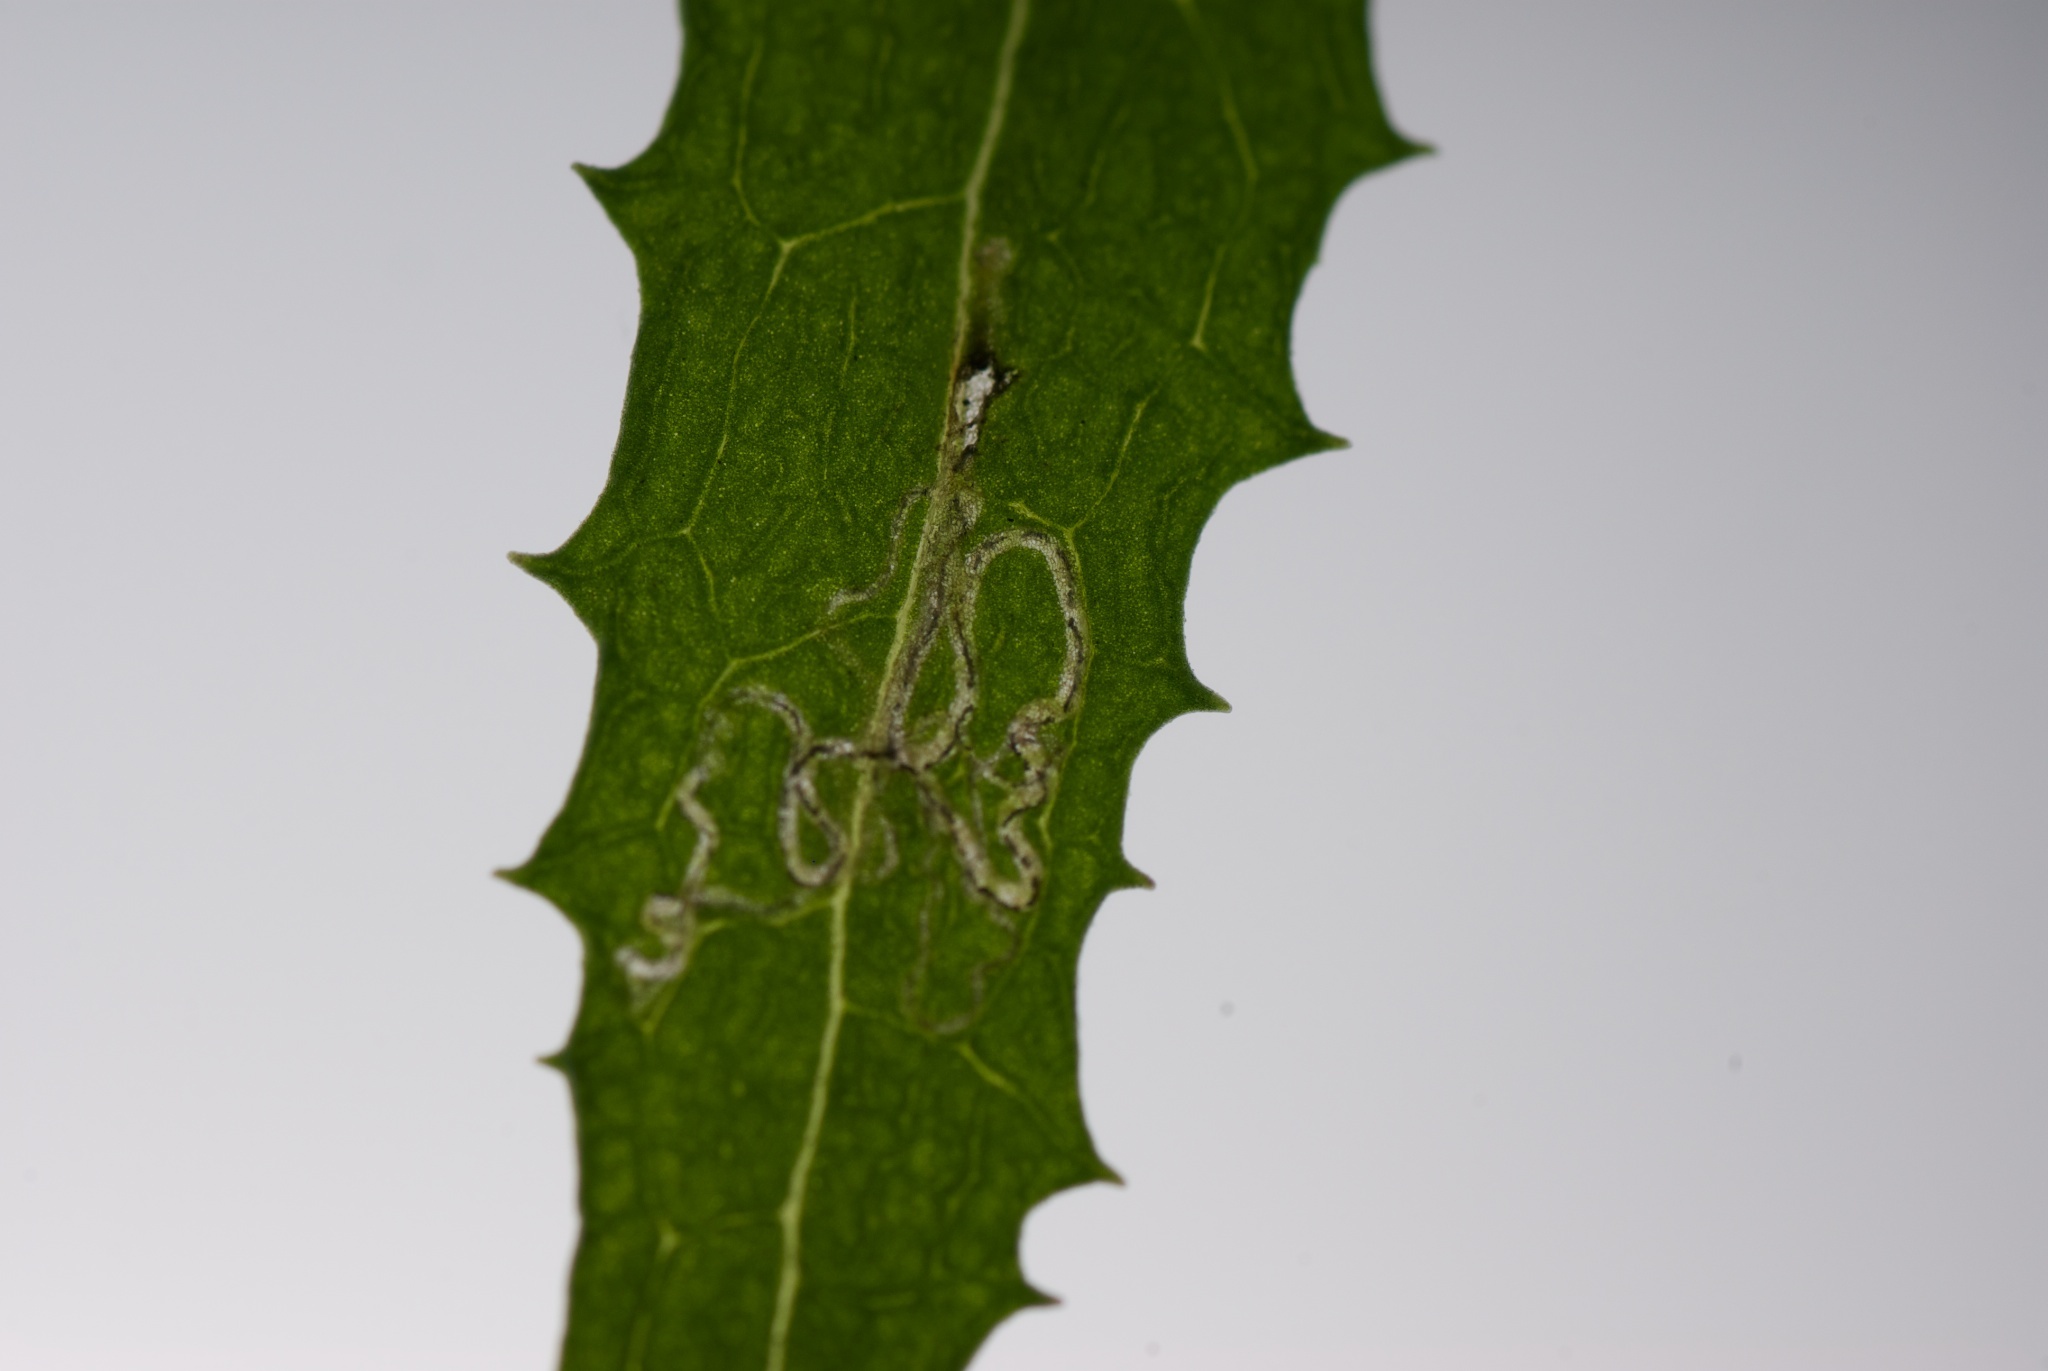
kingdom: Animalia
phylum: Arthropoda
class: Insecta
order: Lepidoptera
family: Nepticulidae
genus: Stigmella
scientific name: Stigmella ogygia
